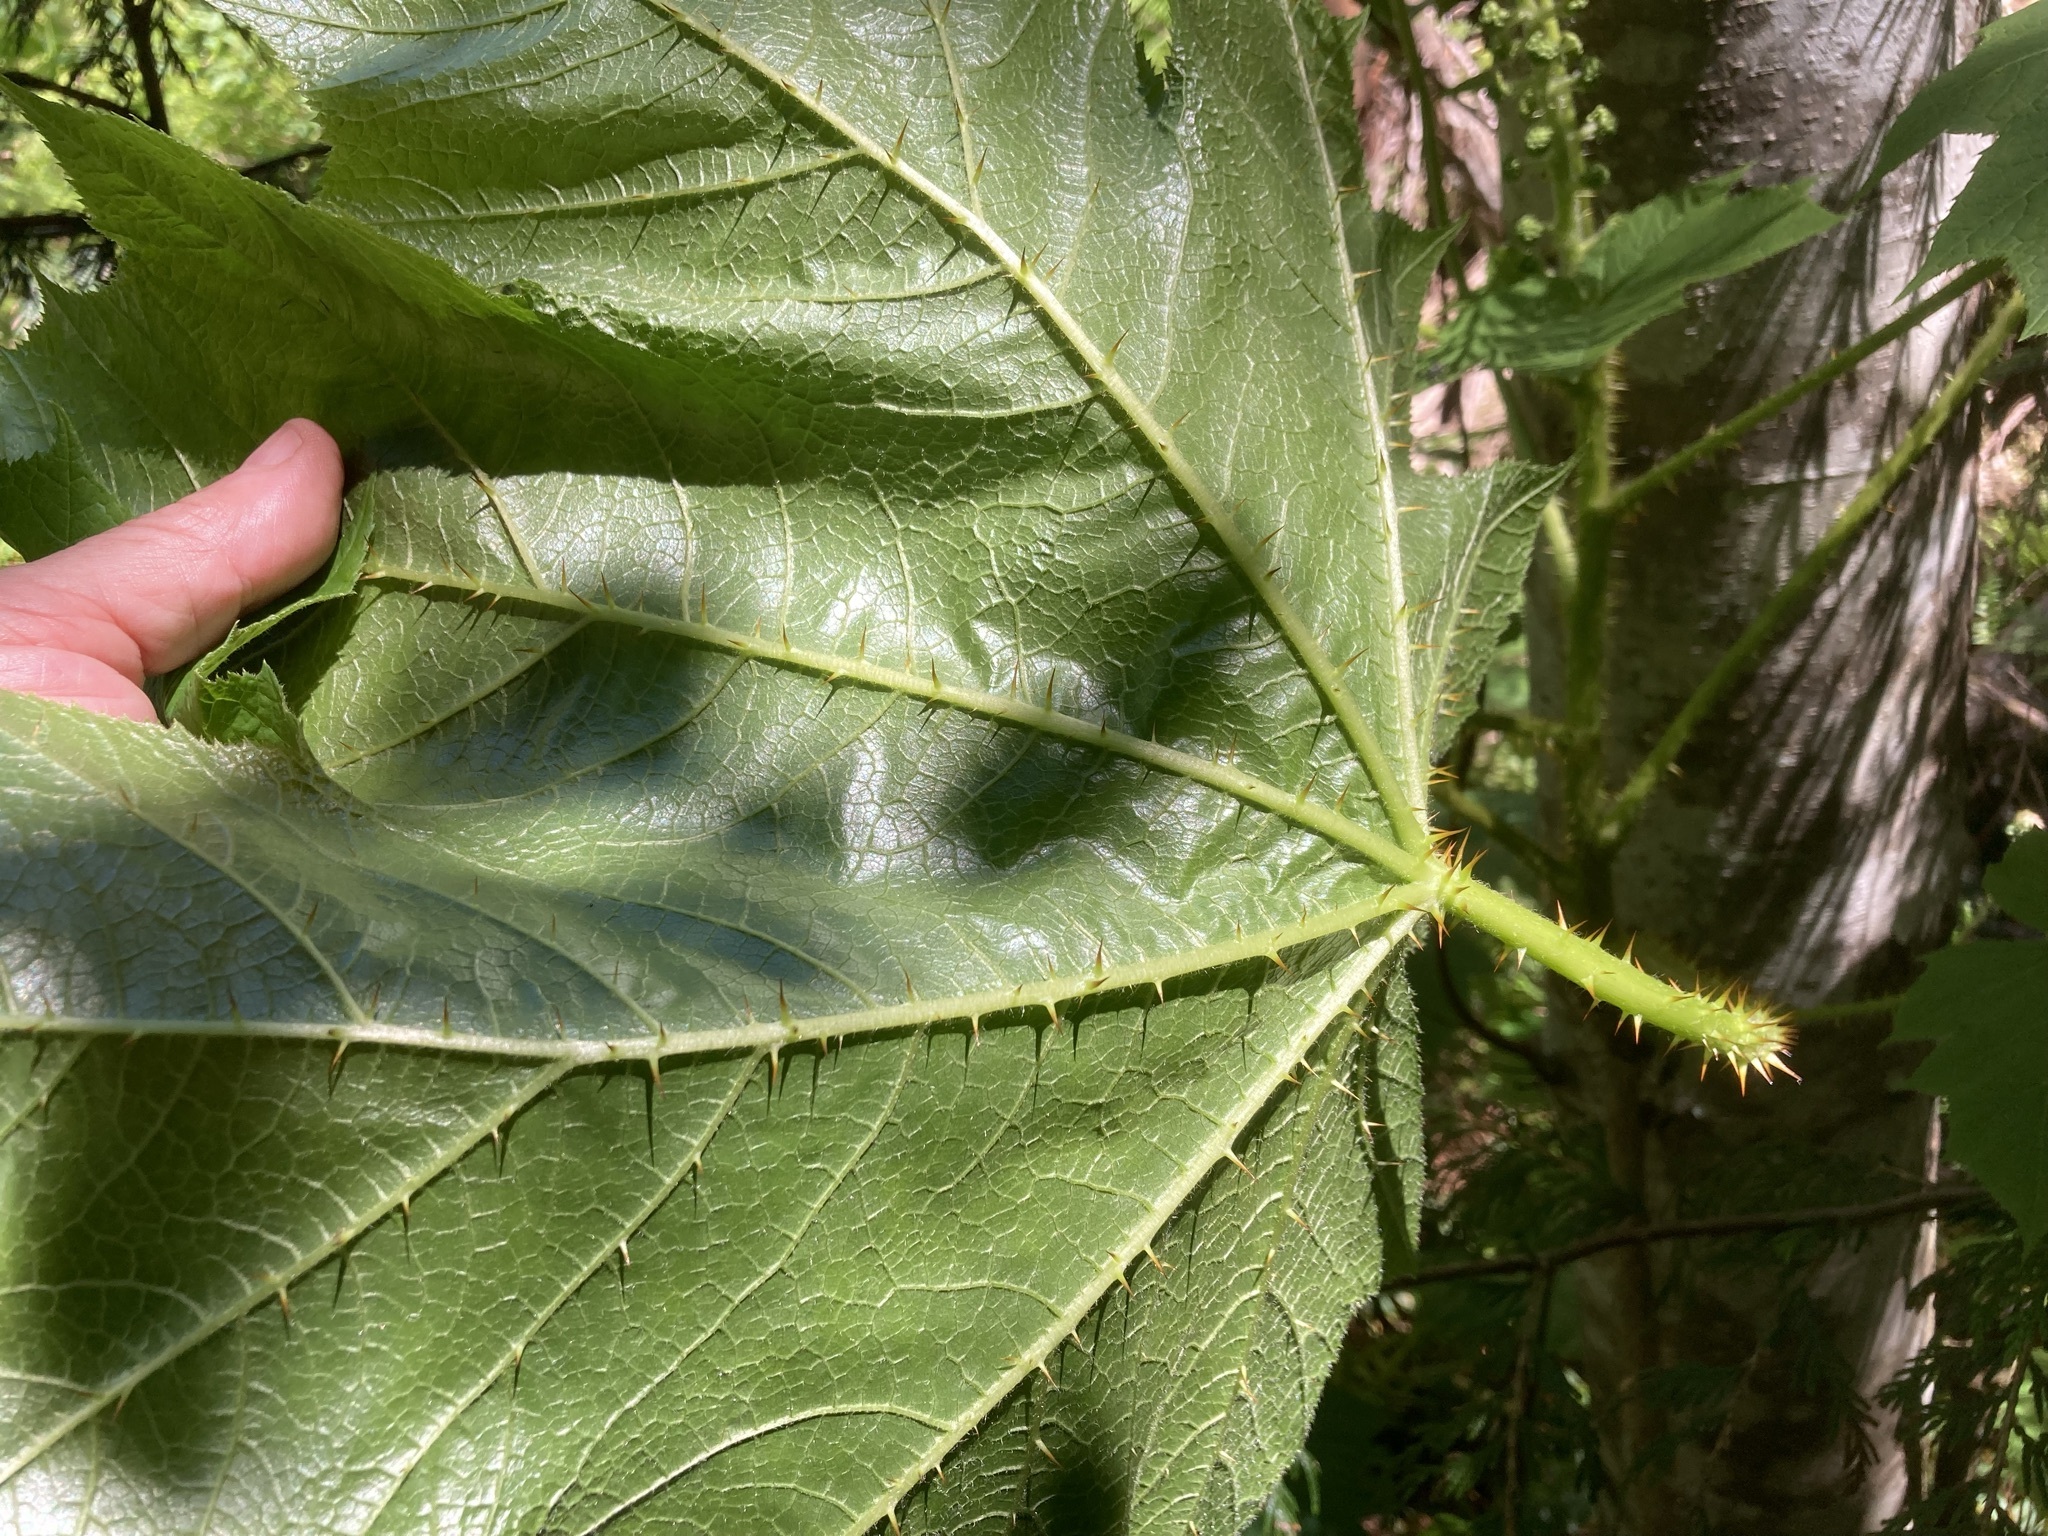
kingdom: Plantae
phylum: Tracheophyta
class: Magnoliopsida
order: Apiales
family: Araliaceae
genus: Oplopanax
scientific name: Oplopanax horridus
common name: Devil's walking-stick
